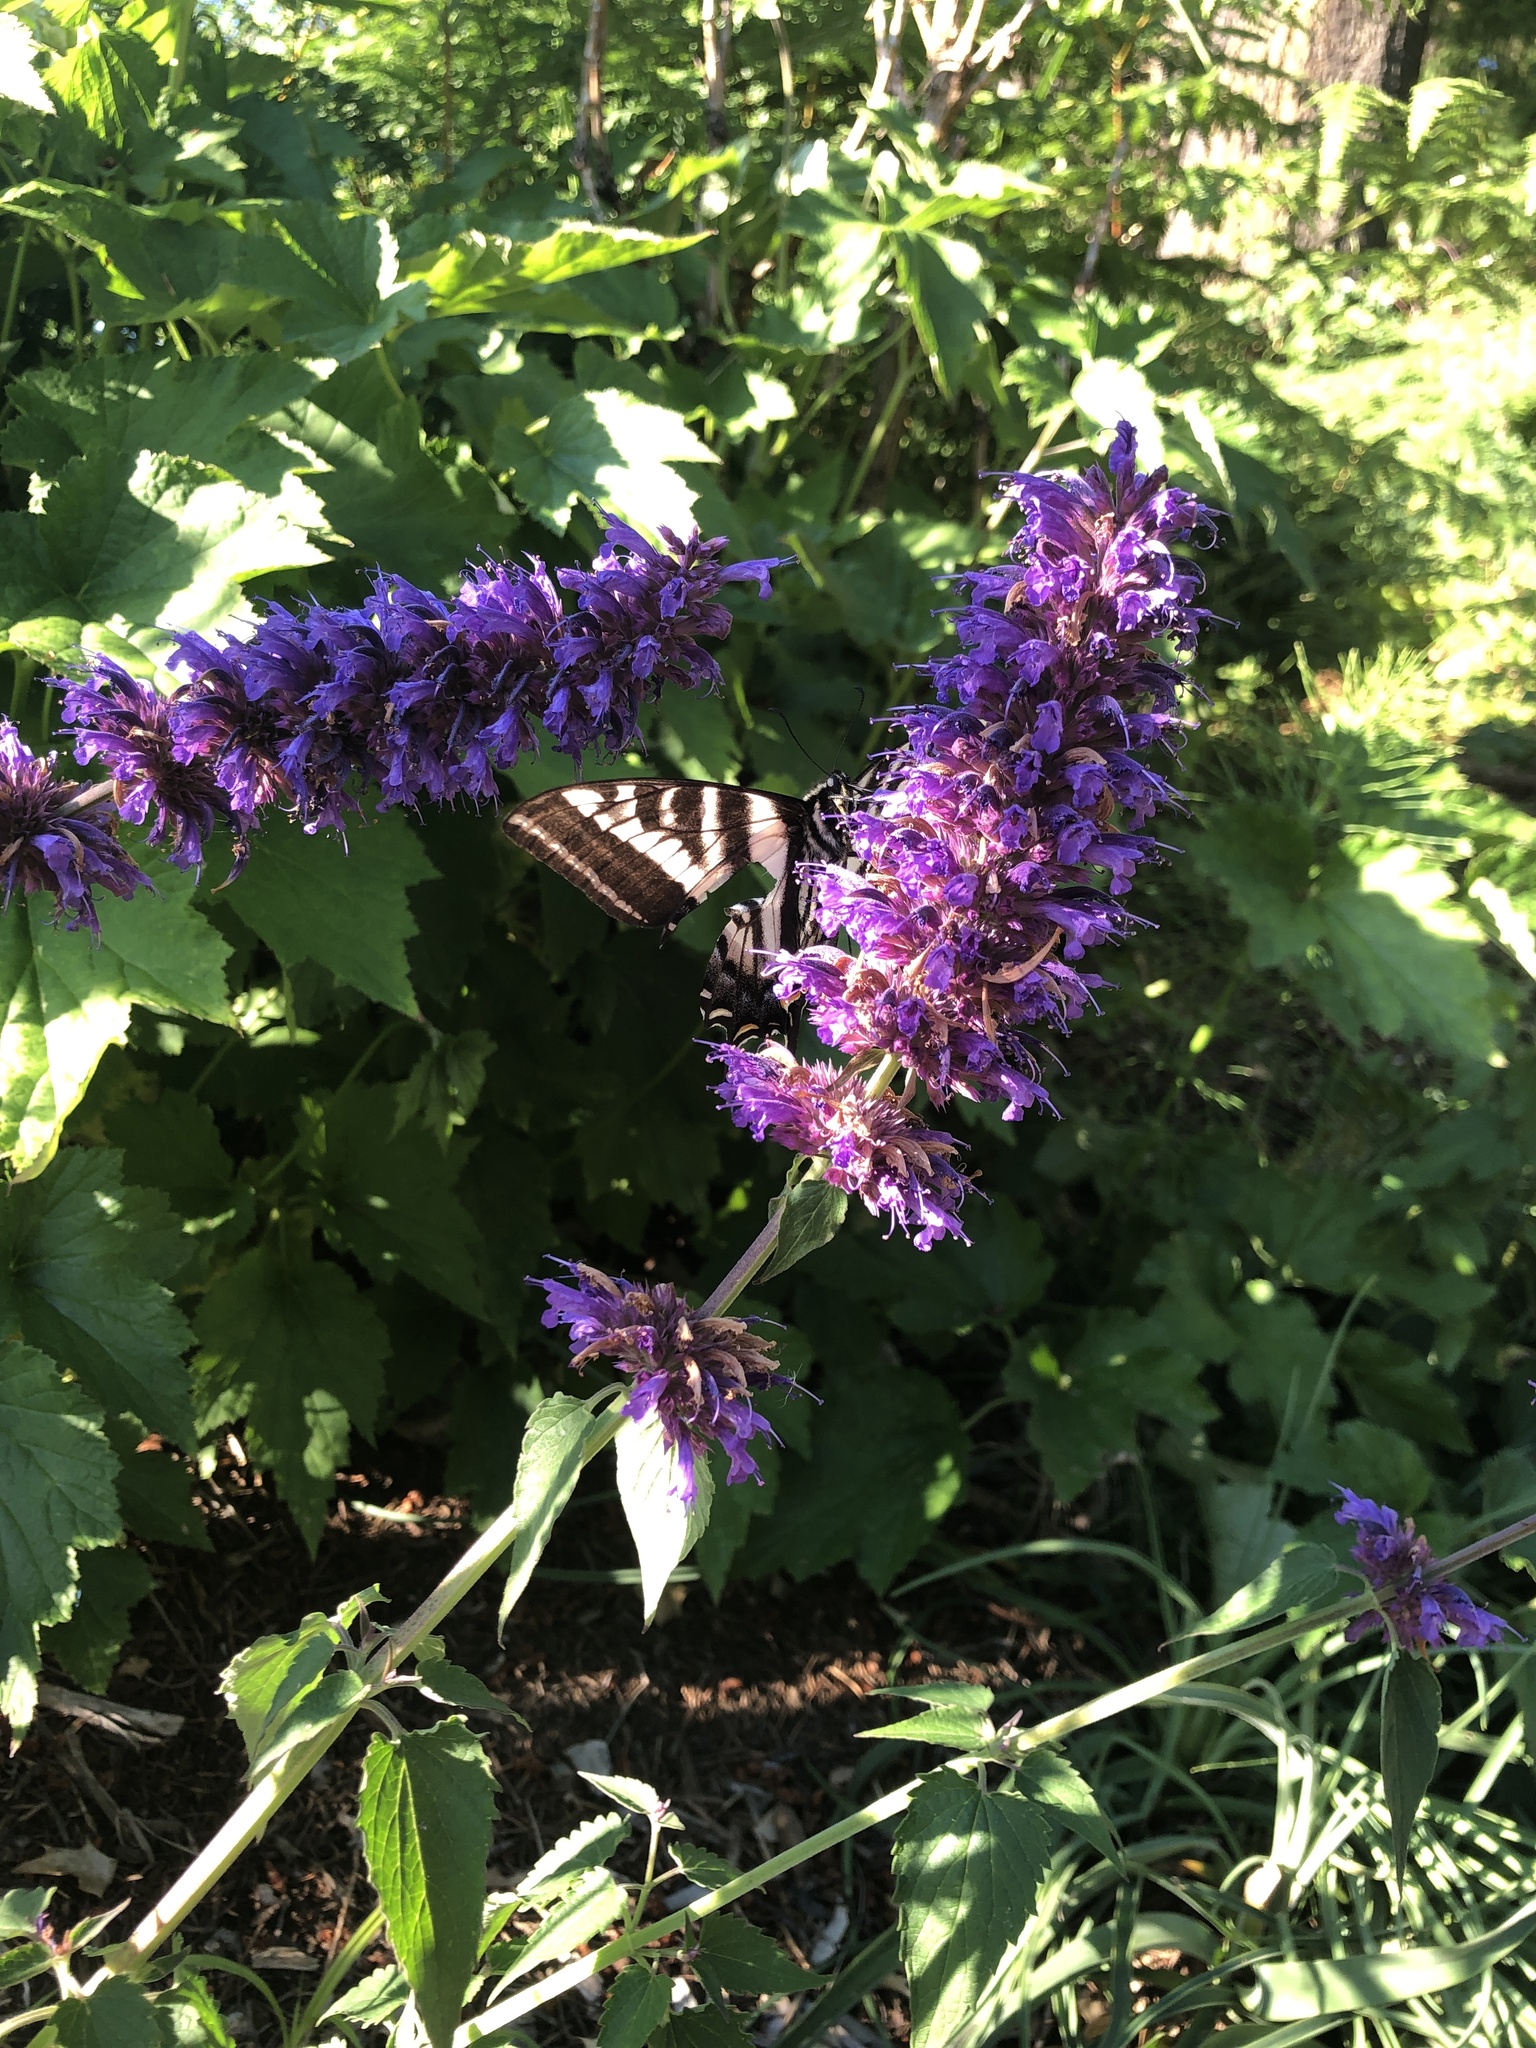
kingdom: Animalia
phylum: Arthropoda
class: Insecta
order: Lepidoptera
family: Papilionidae
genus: Papilio
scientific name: Papilio eurymedon
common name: Pale tiger swallowtail
